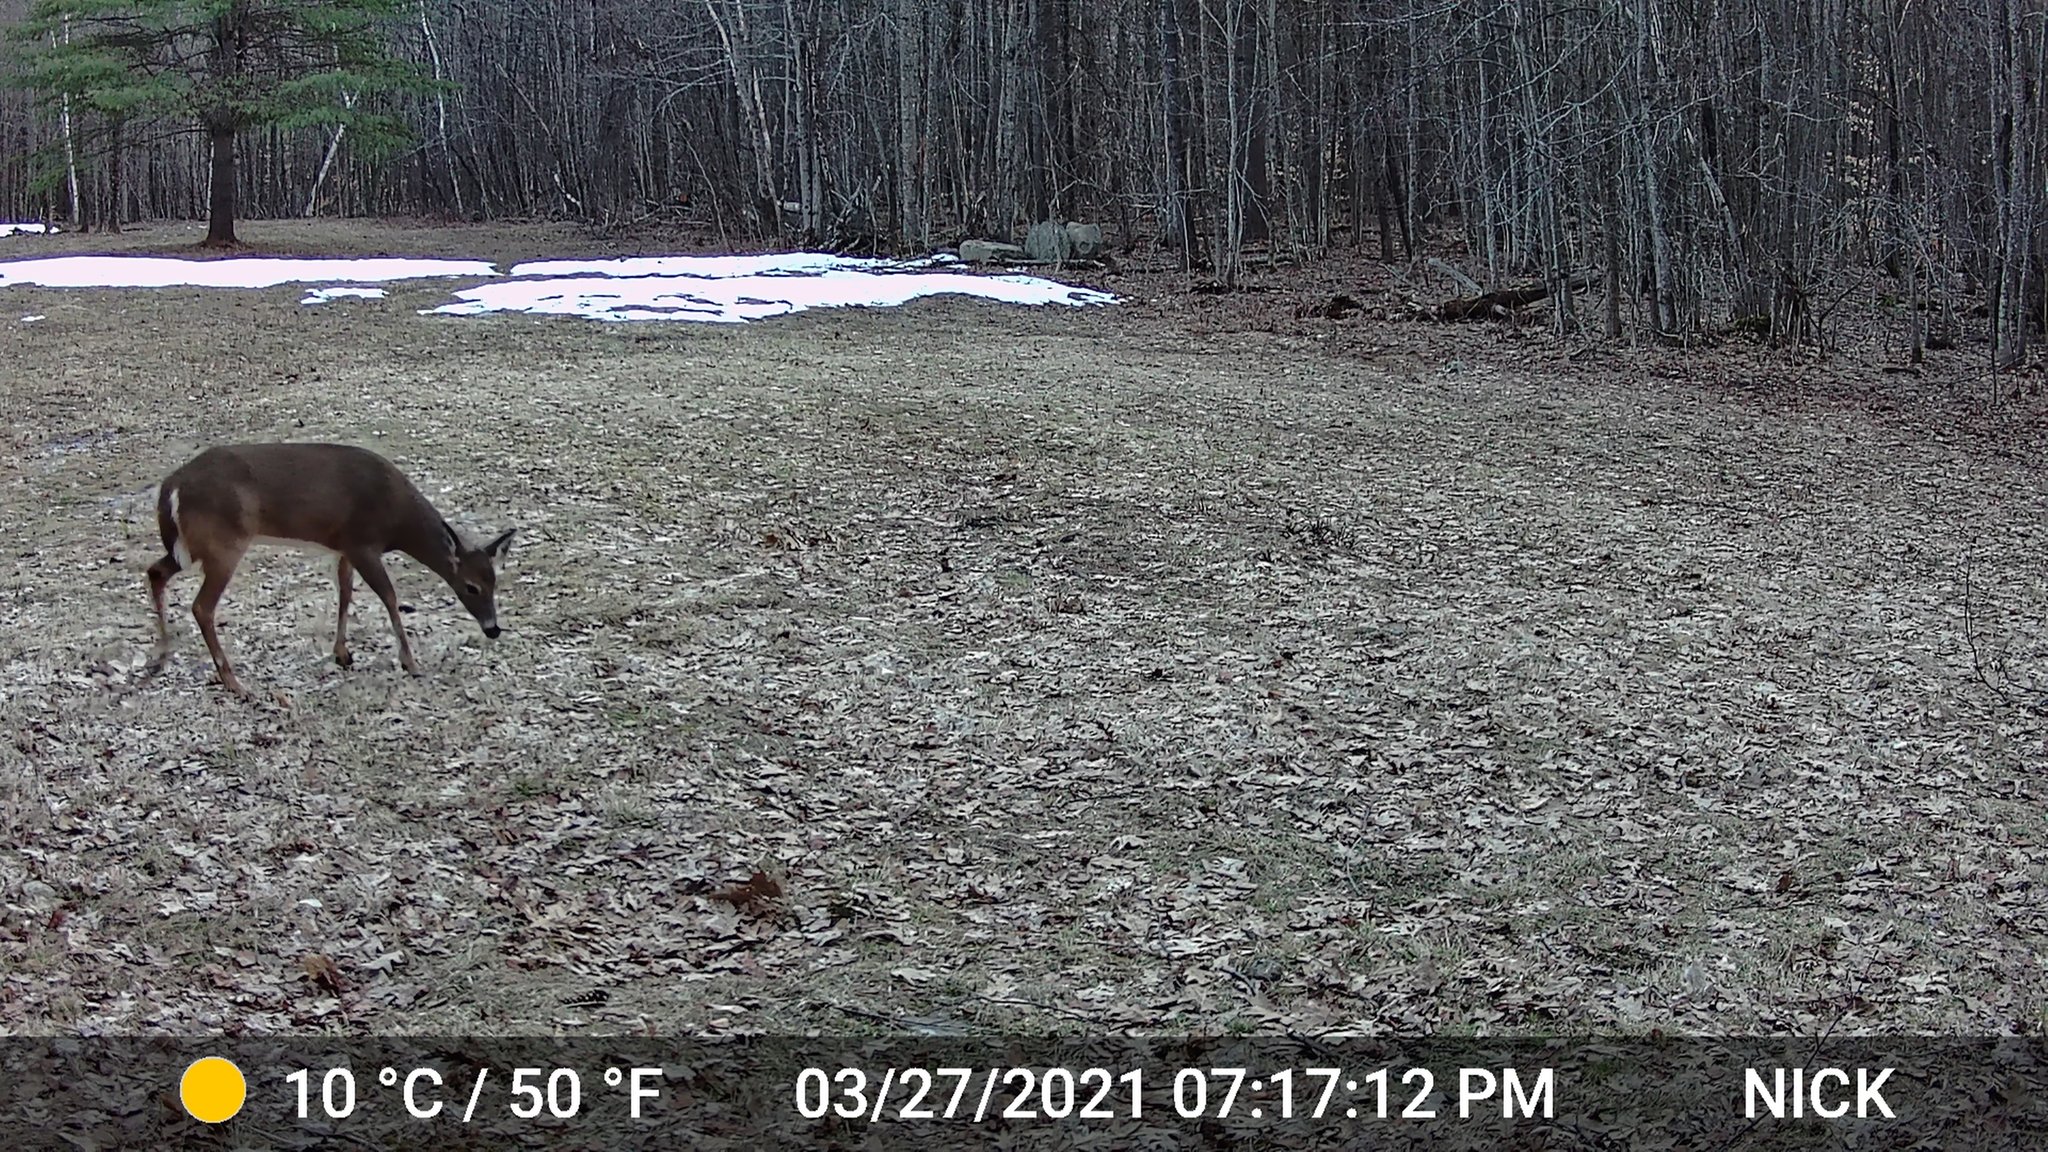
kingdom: Animalia
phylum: Chordata
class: Mammalia
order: Artiodactyla
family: Cervidae
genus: Odocoileus
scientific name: Odocoileus virginianus
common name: White-tailed deer
